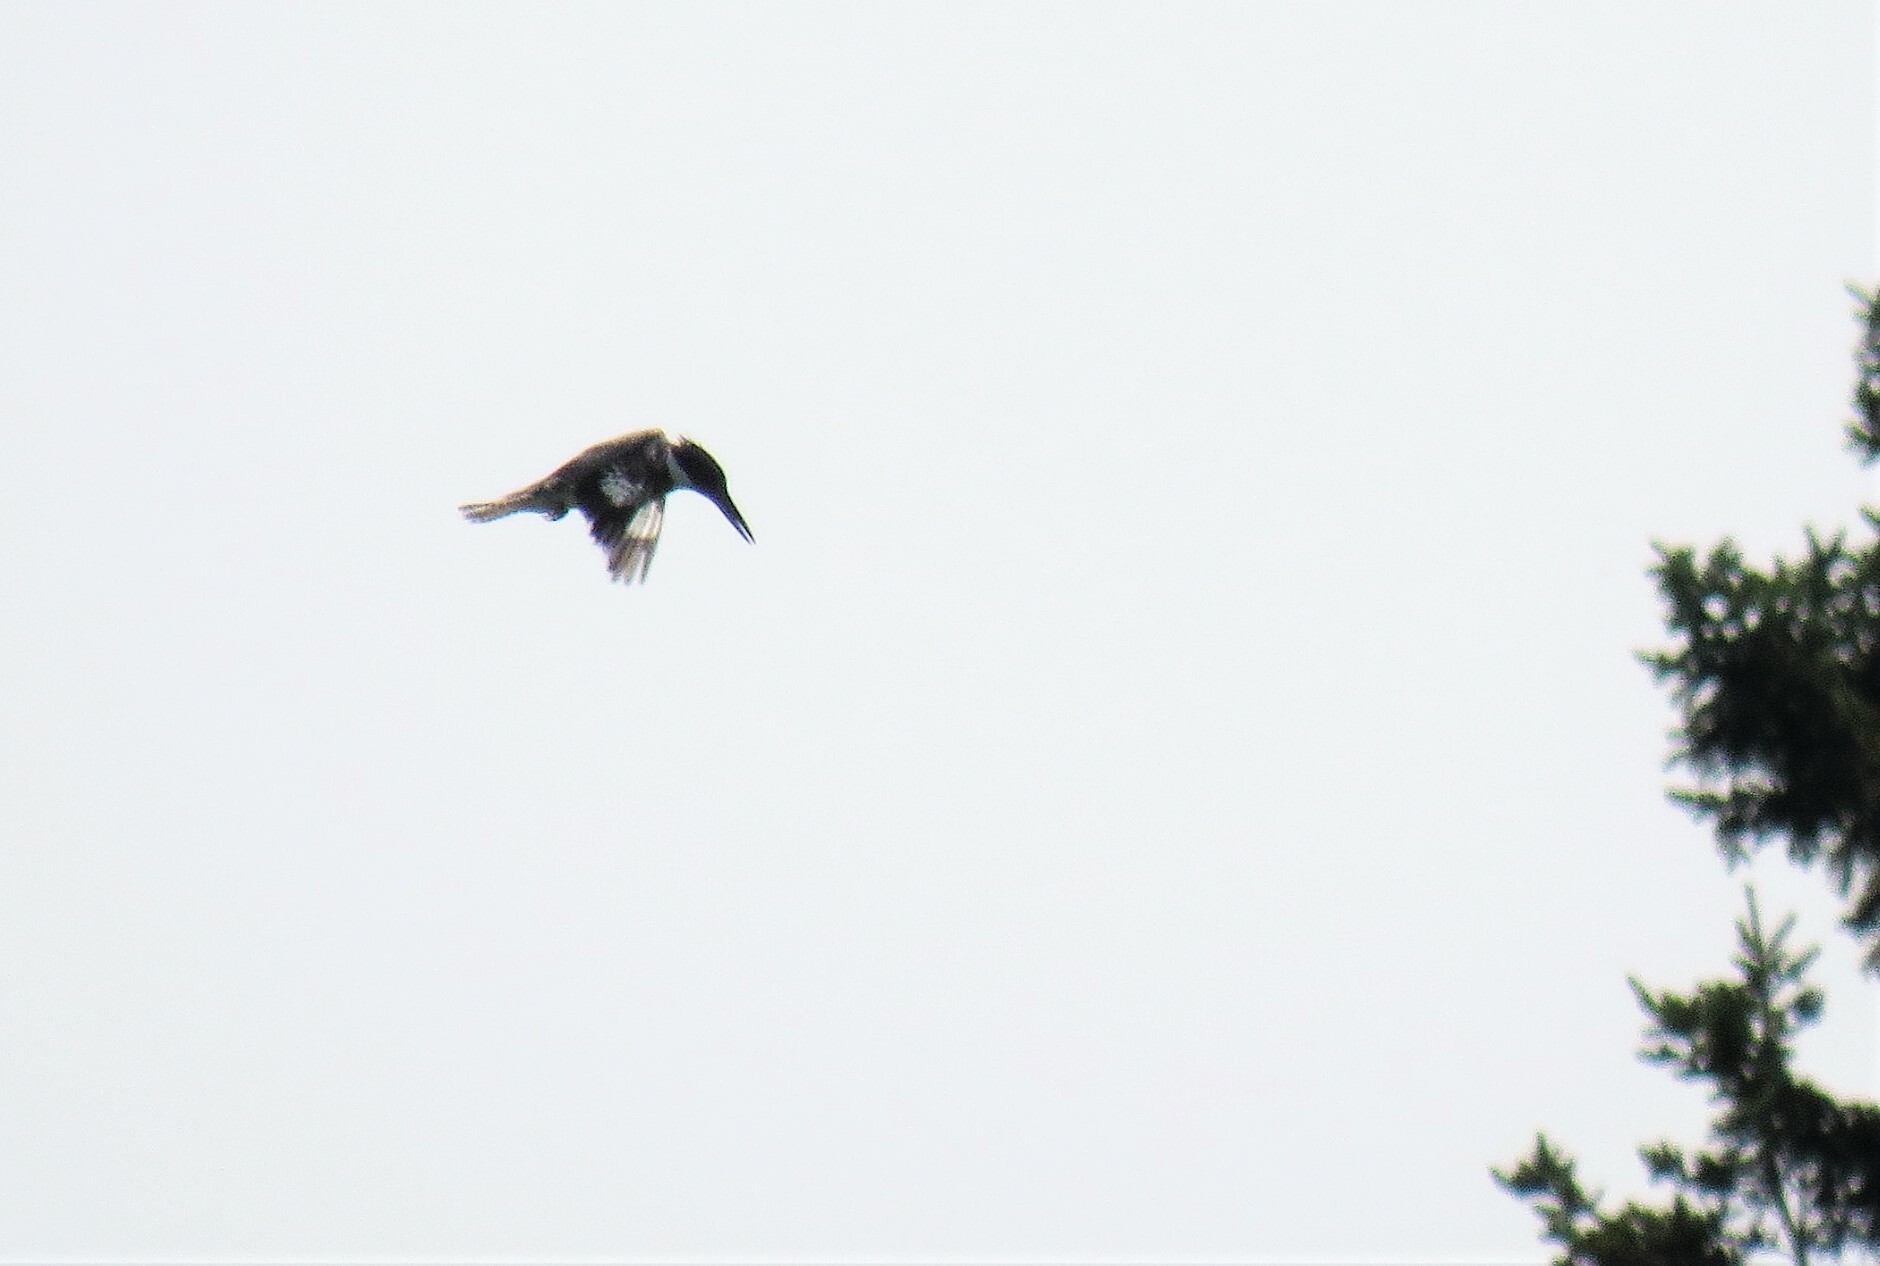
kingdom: Animalia
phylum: Chordata
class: Aves
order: Coraciiformes
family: Alcedinidae
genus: Megaceryle
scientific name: Megaceryle alcyon
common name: Belted kingfisher
